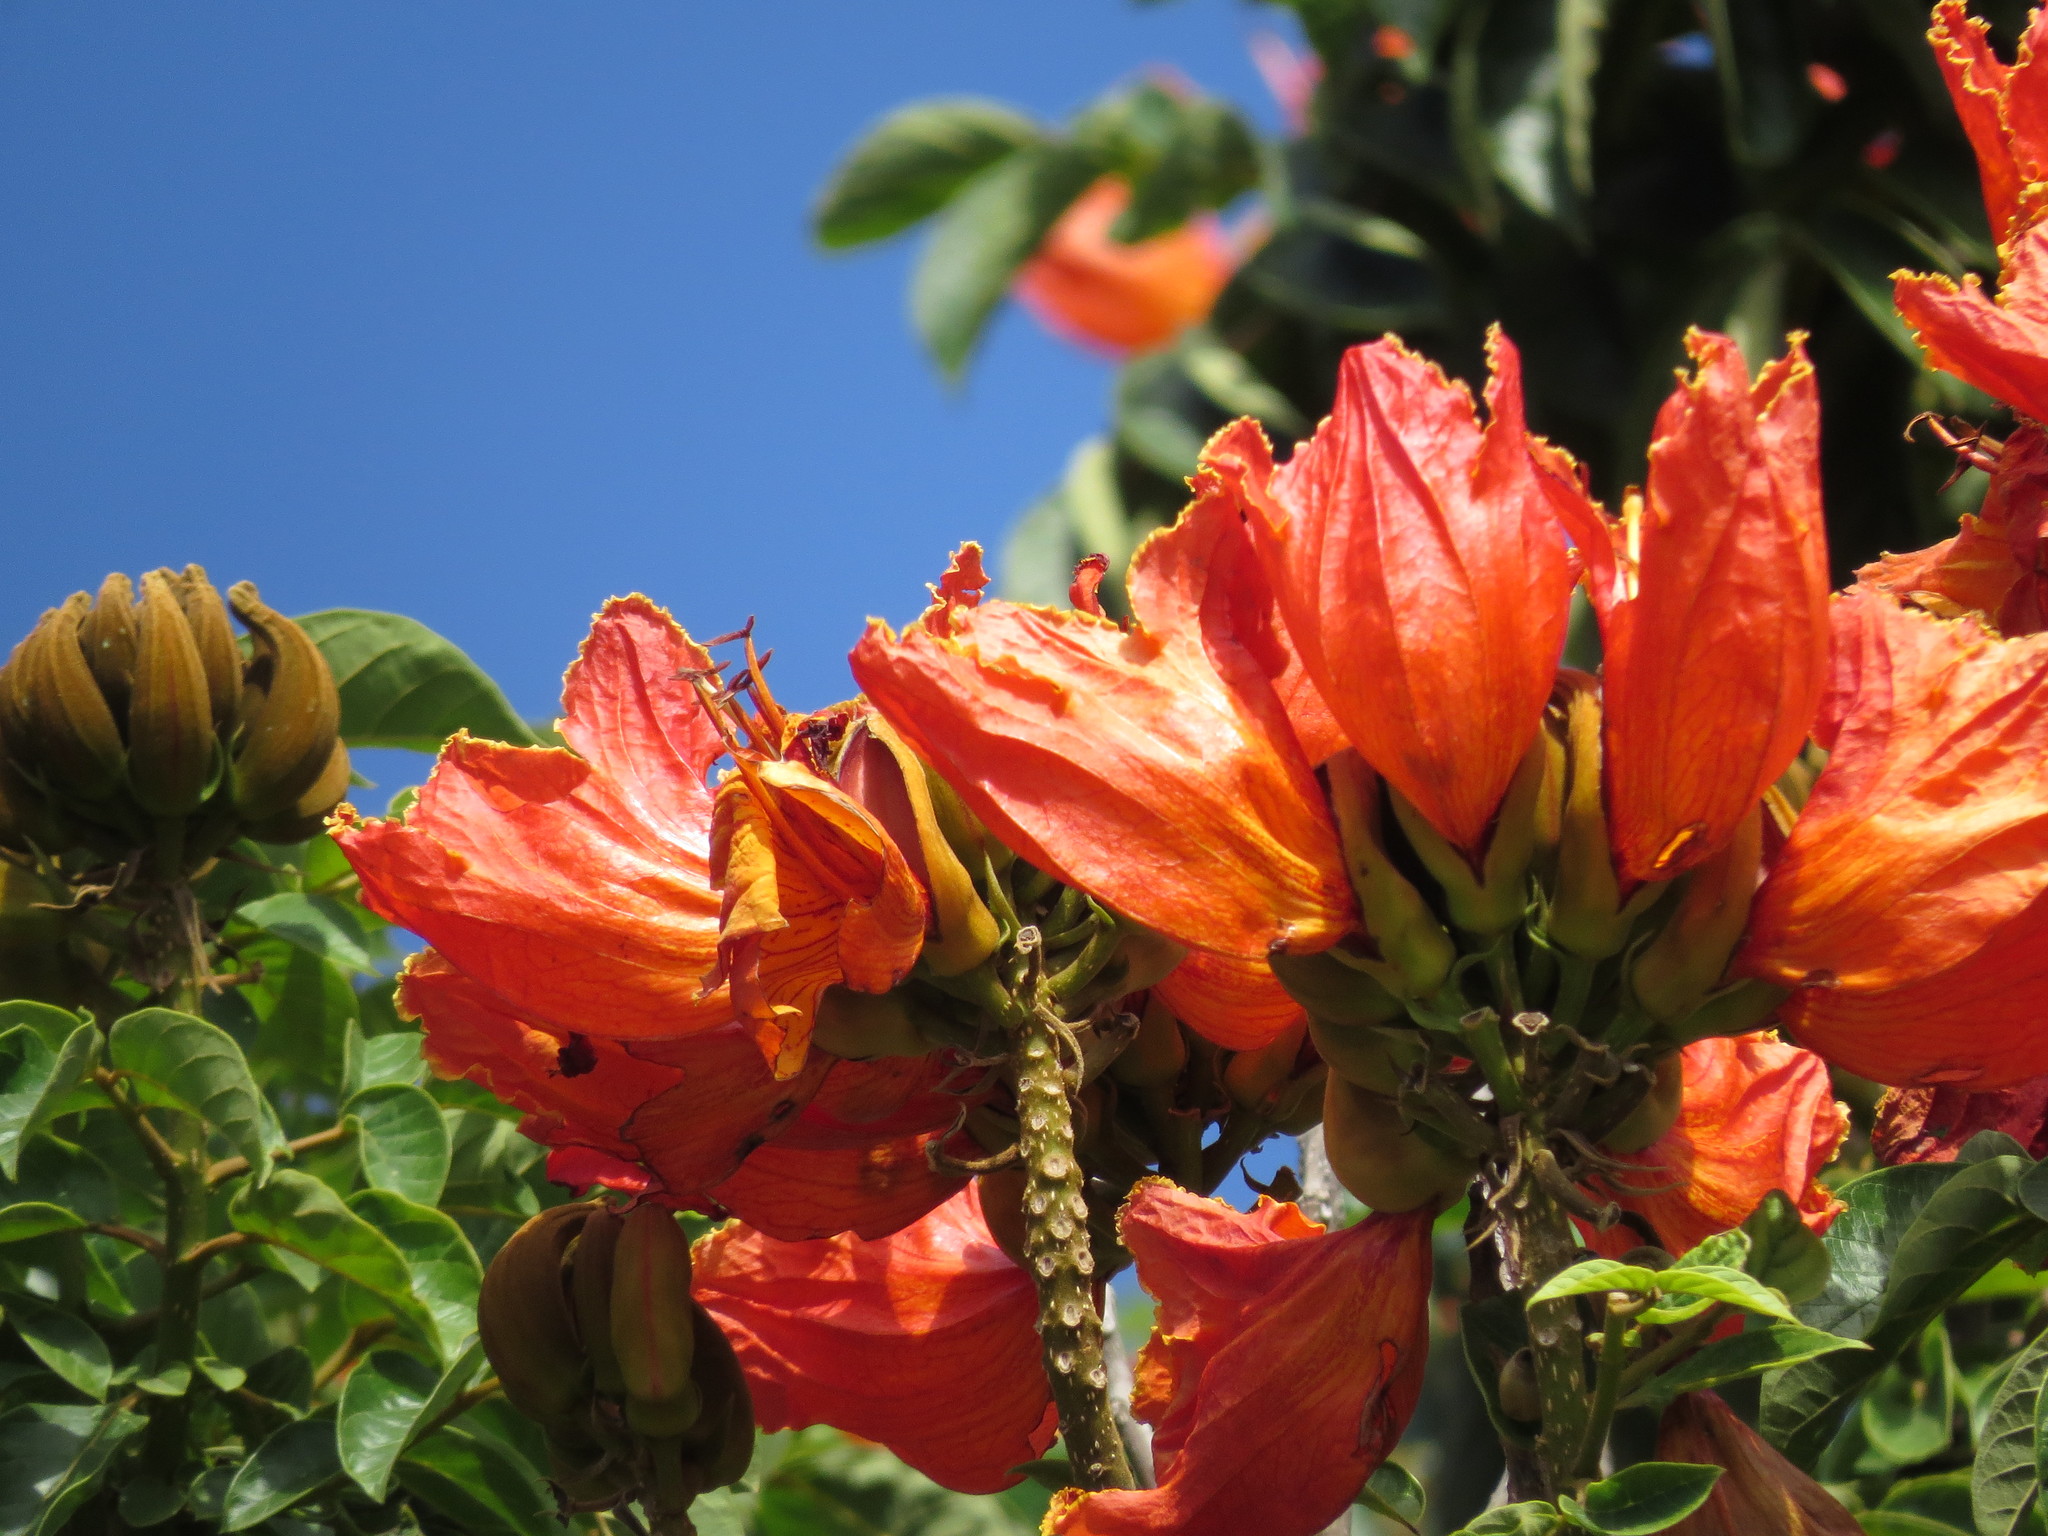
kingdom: Plantae
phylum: Tracheophyta
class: Magnoliopsida
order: Lamiales
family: Bignoniaceae
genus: Spathodea
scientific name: Spathodea campanulata
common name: African tuliptree
